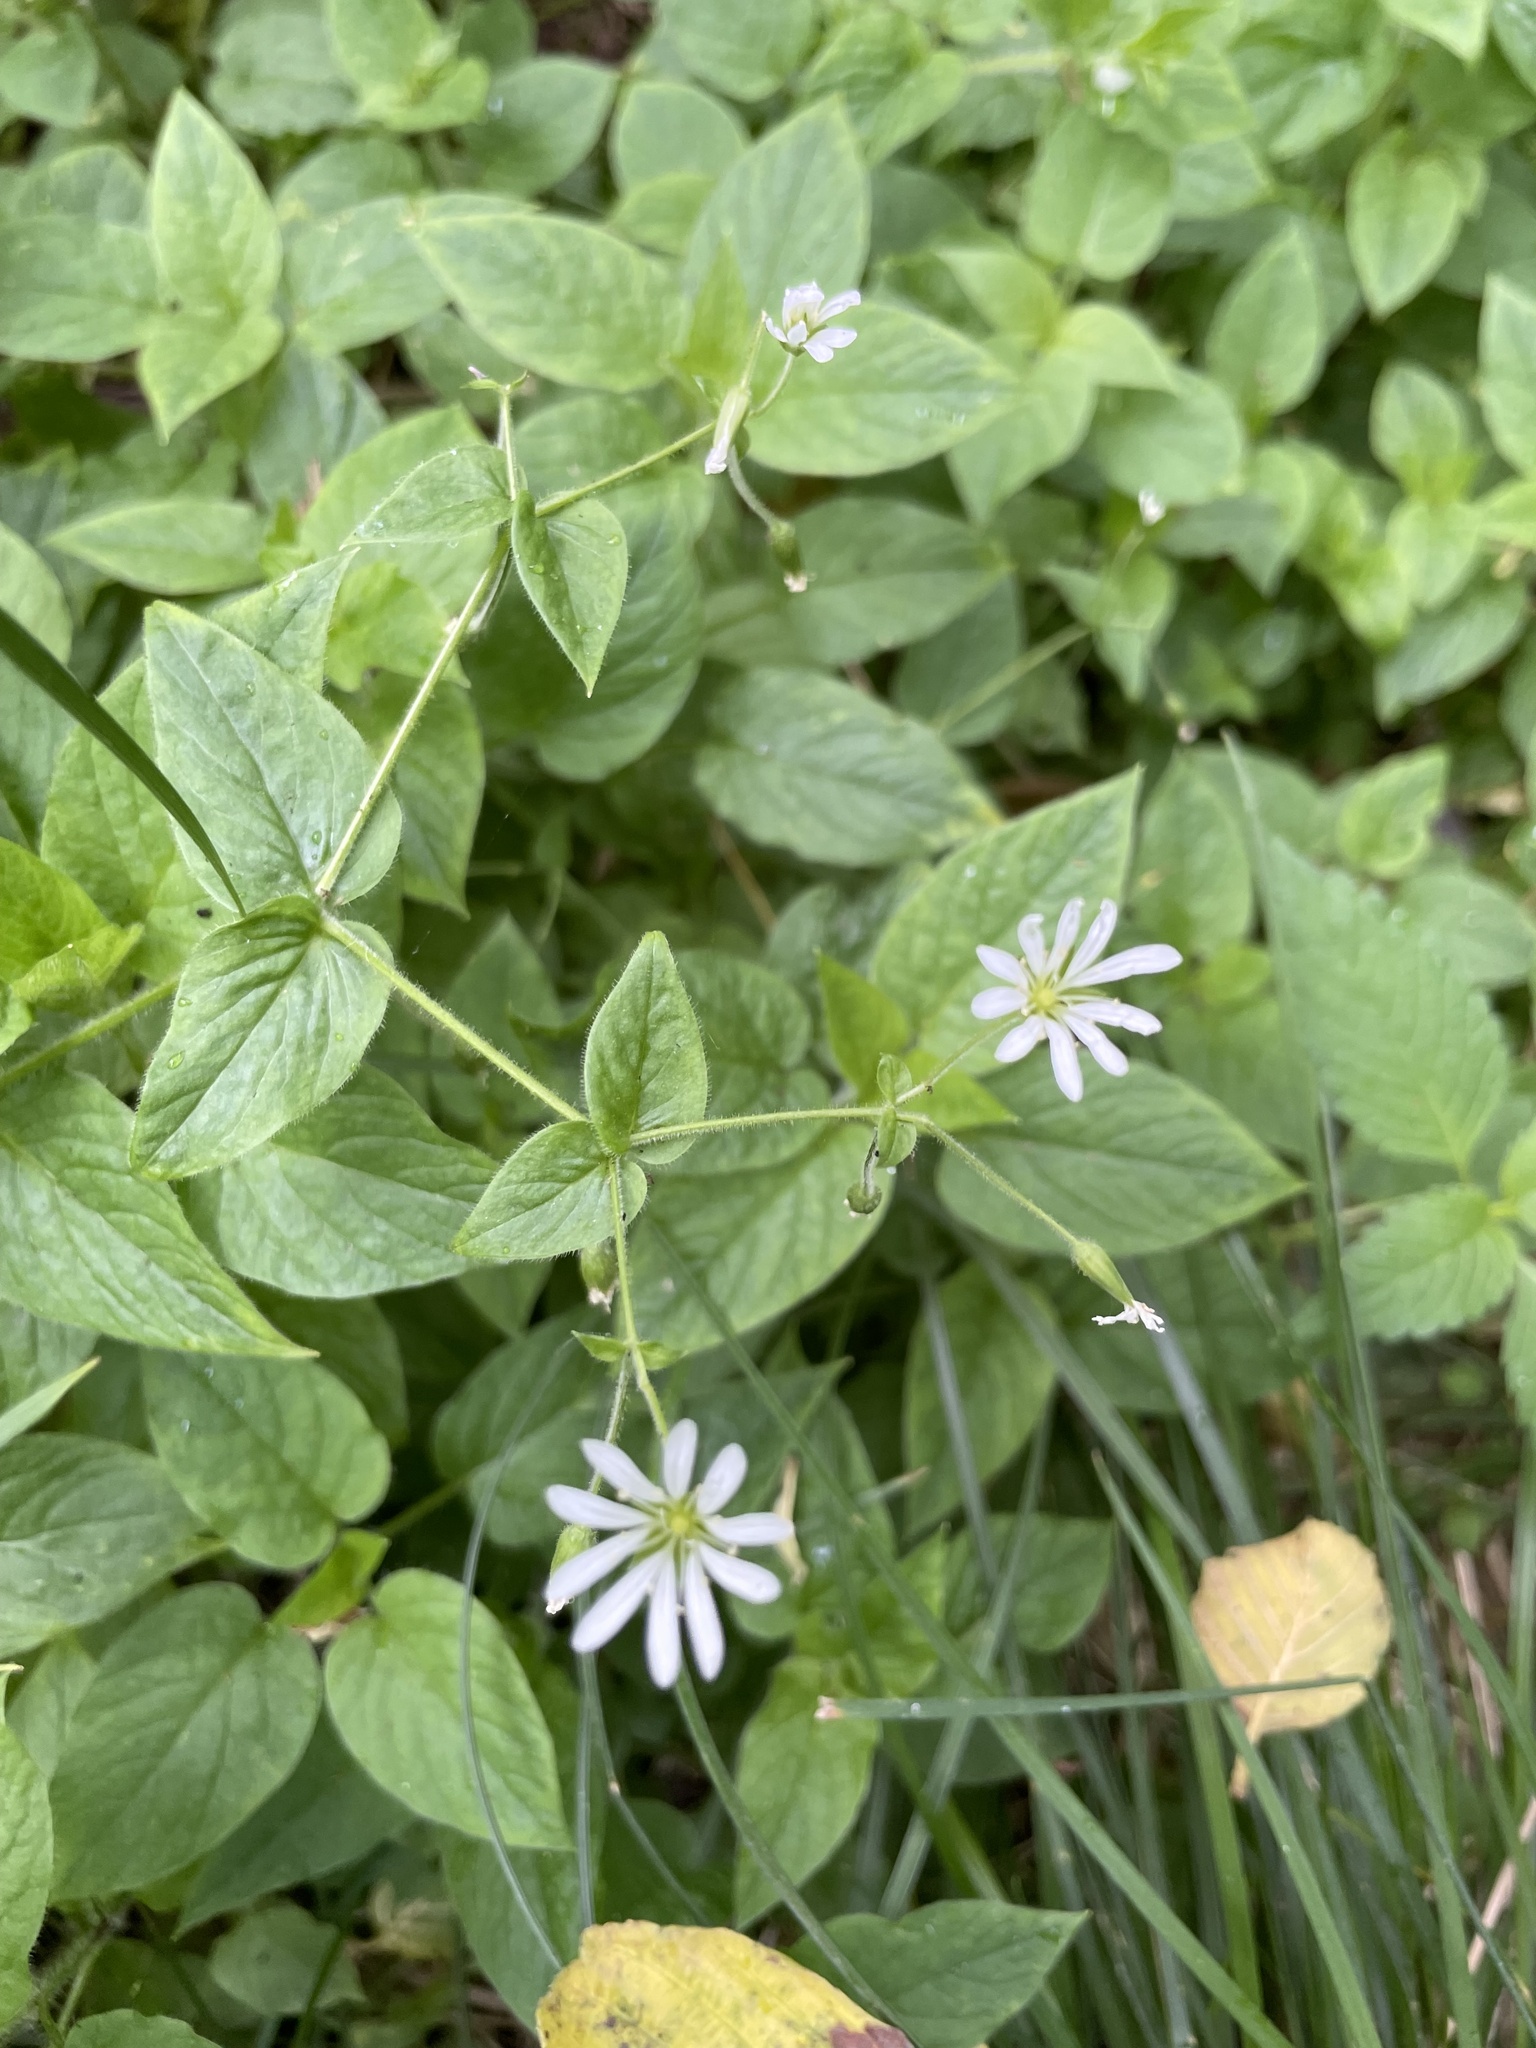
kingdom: Plantae
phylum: Tracheophyta
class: Magnoliopsida
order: Caryophyllales
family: Caryophyllaceae
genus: Stellaria
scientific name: Stellaria nemorum
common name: Wood stitchwort
